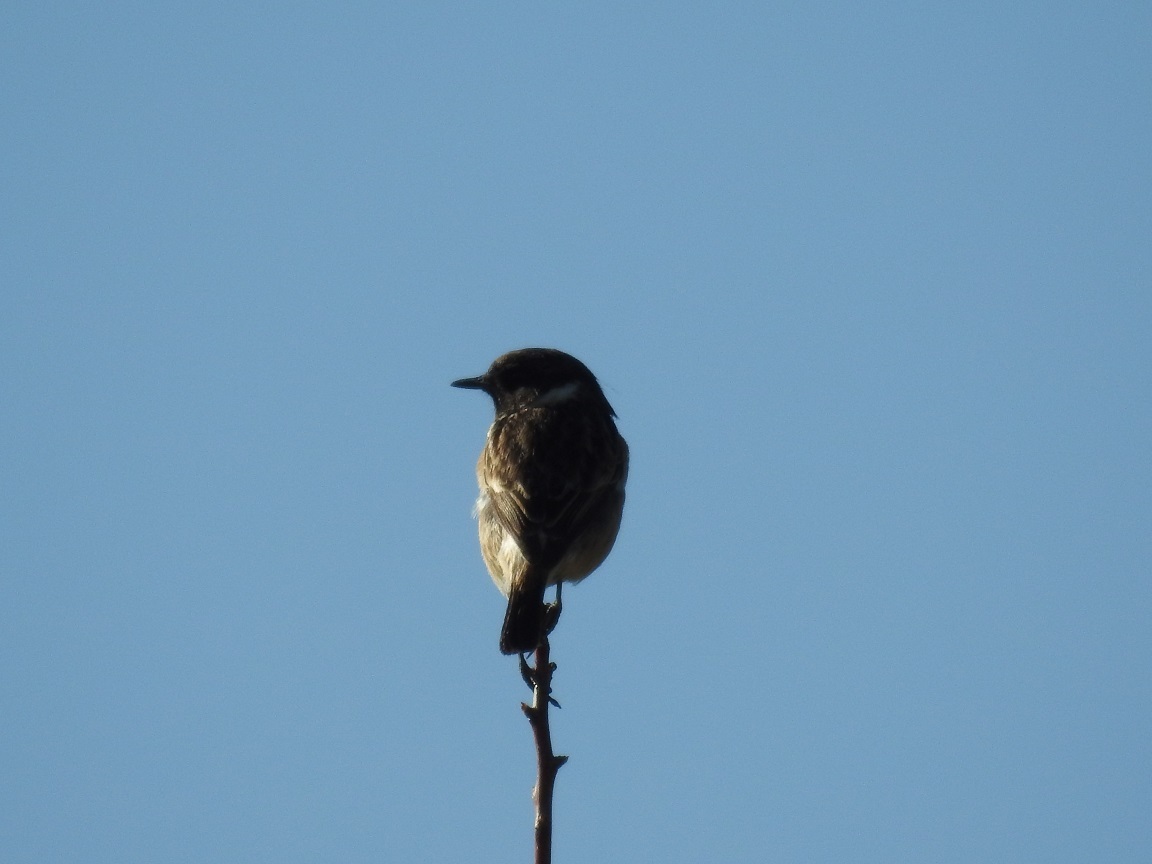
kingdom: Animalia
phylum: Chordata
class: Aves
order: Passeriformes
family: Muscicapidae
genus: Saxicola
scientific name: Saxicola rubicola
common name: European stonechat
